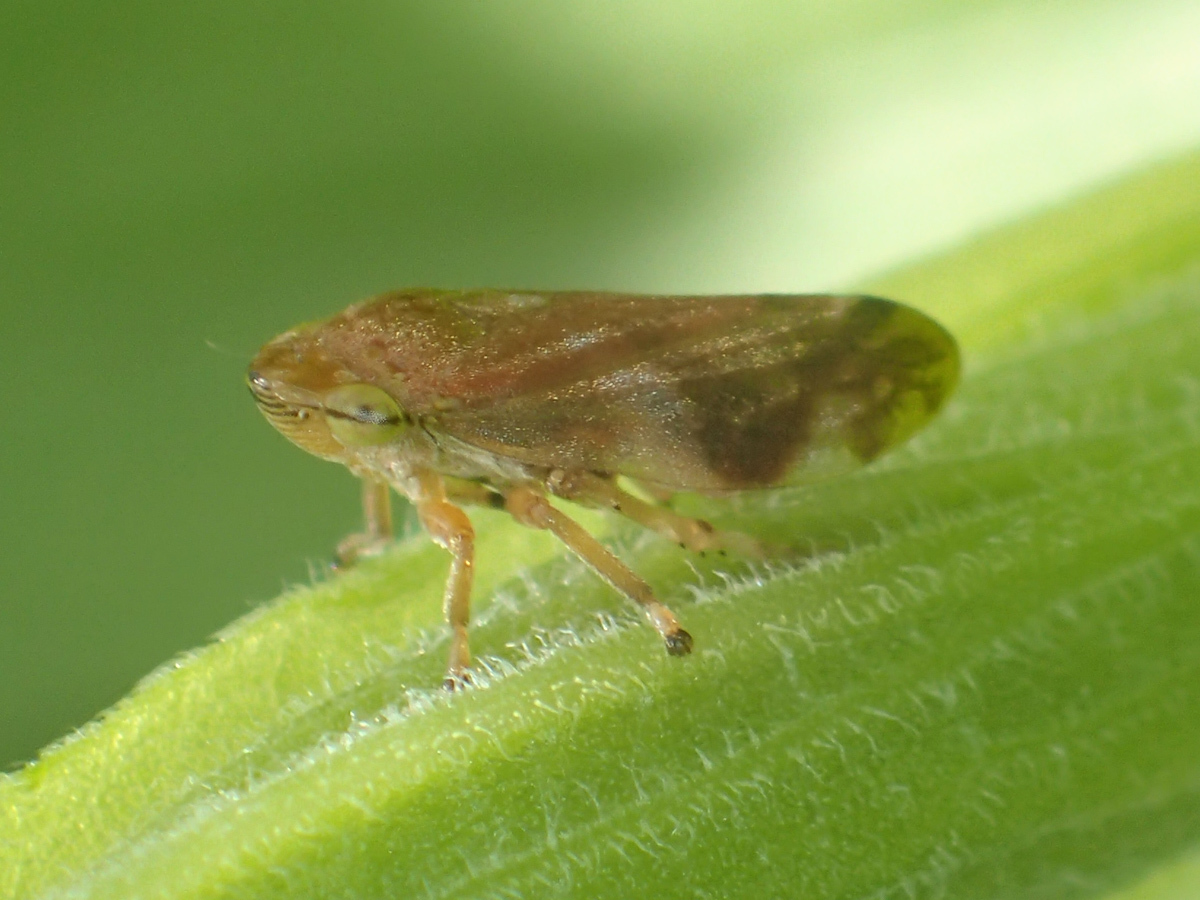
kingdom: Animalia
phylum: Arthropoda
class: Insecta
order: Hemiptera
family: Aphrophoridae
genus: Philaenus
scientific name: Philaenus spumarius
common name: Meadow spittlebug
